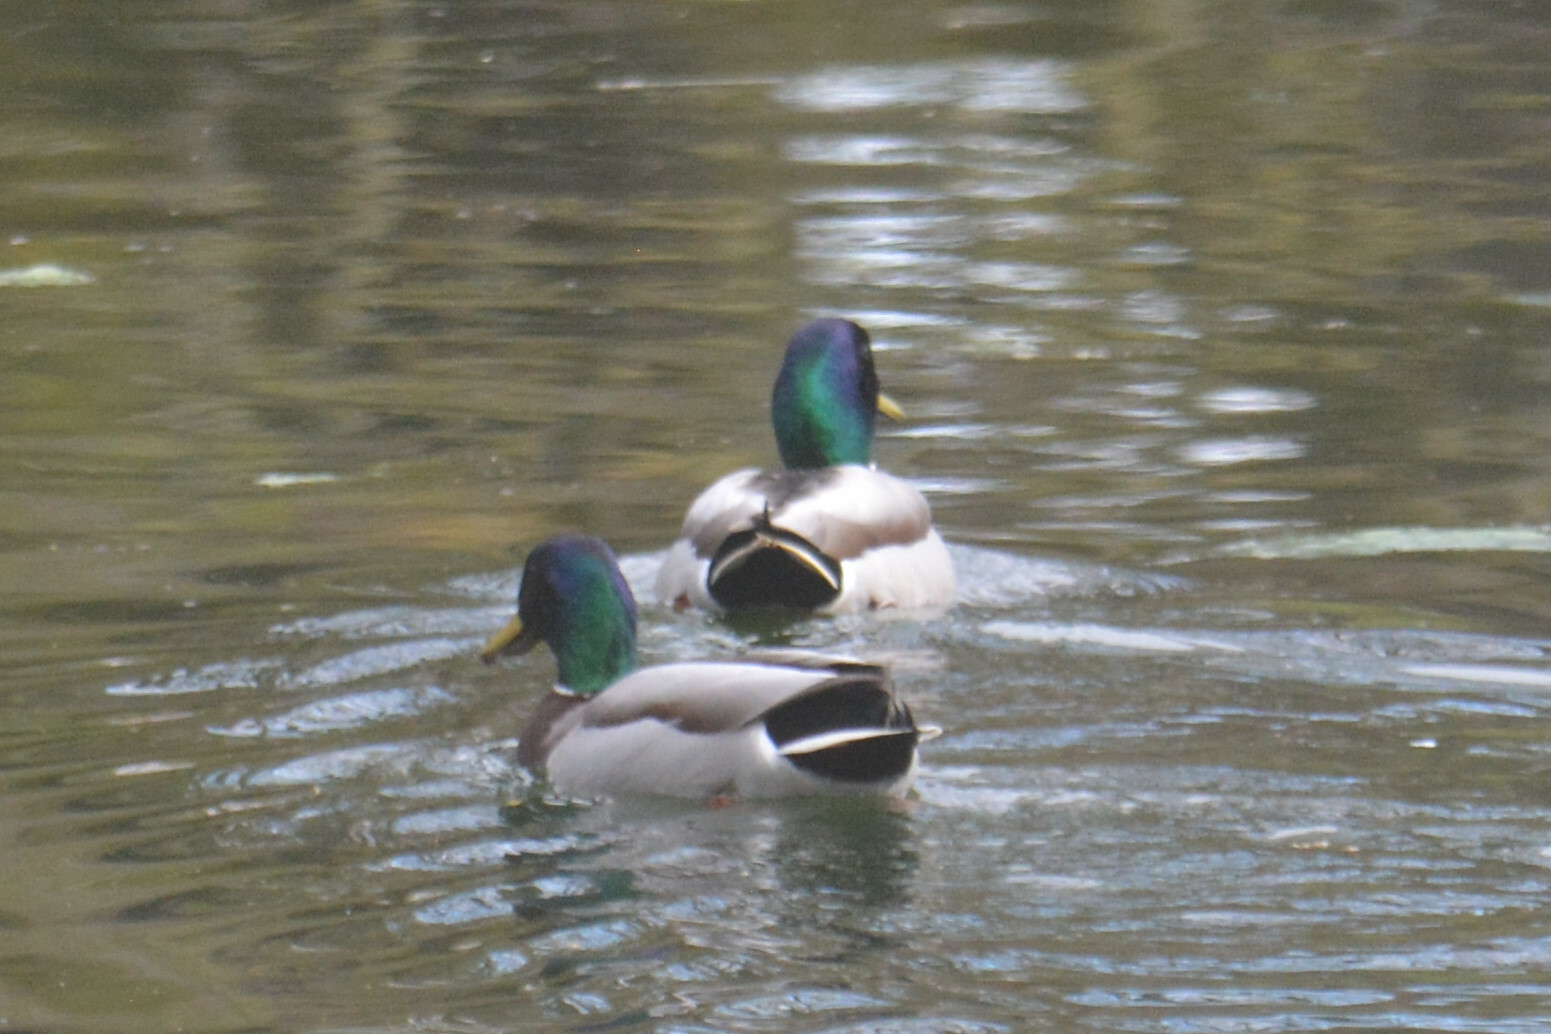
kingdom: Animalia
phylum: Chordata
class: Aves
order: Anseriformes
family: Anatidae
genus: Anas
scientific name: Anas platyrhynchos
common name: Mallard
